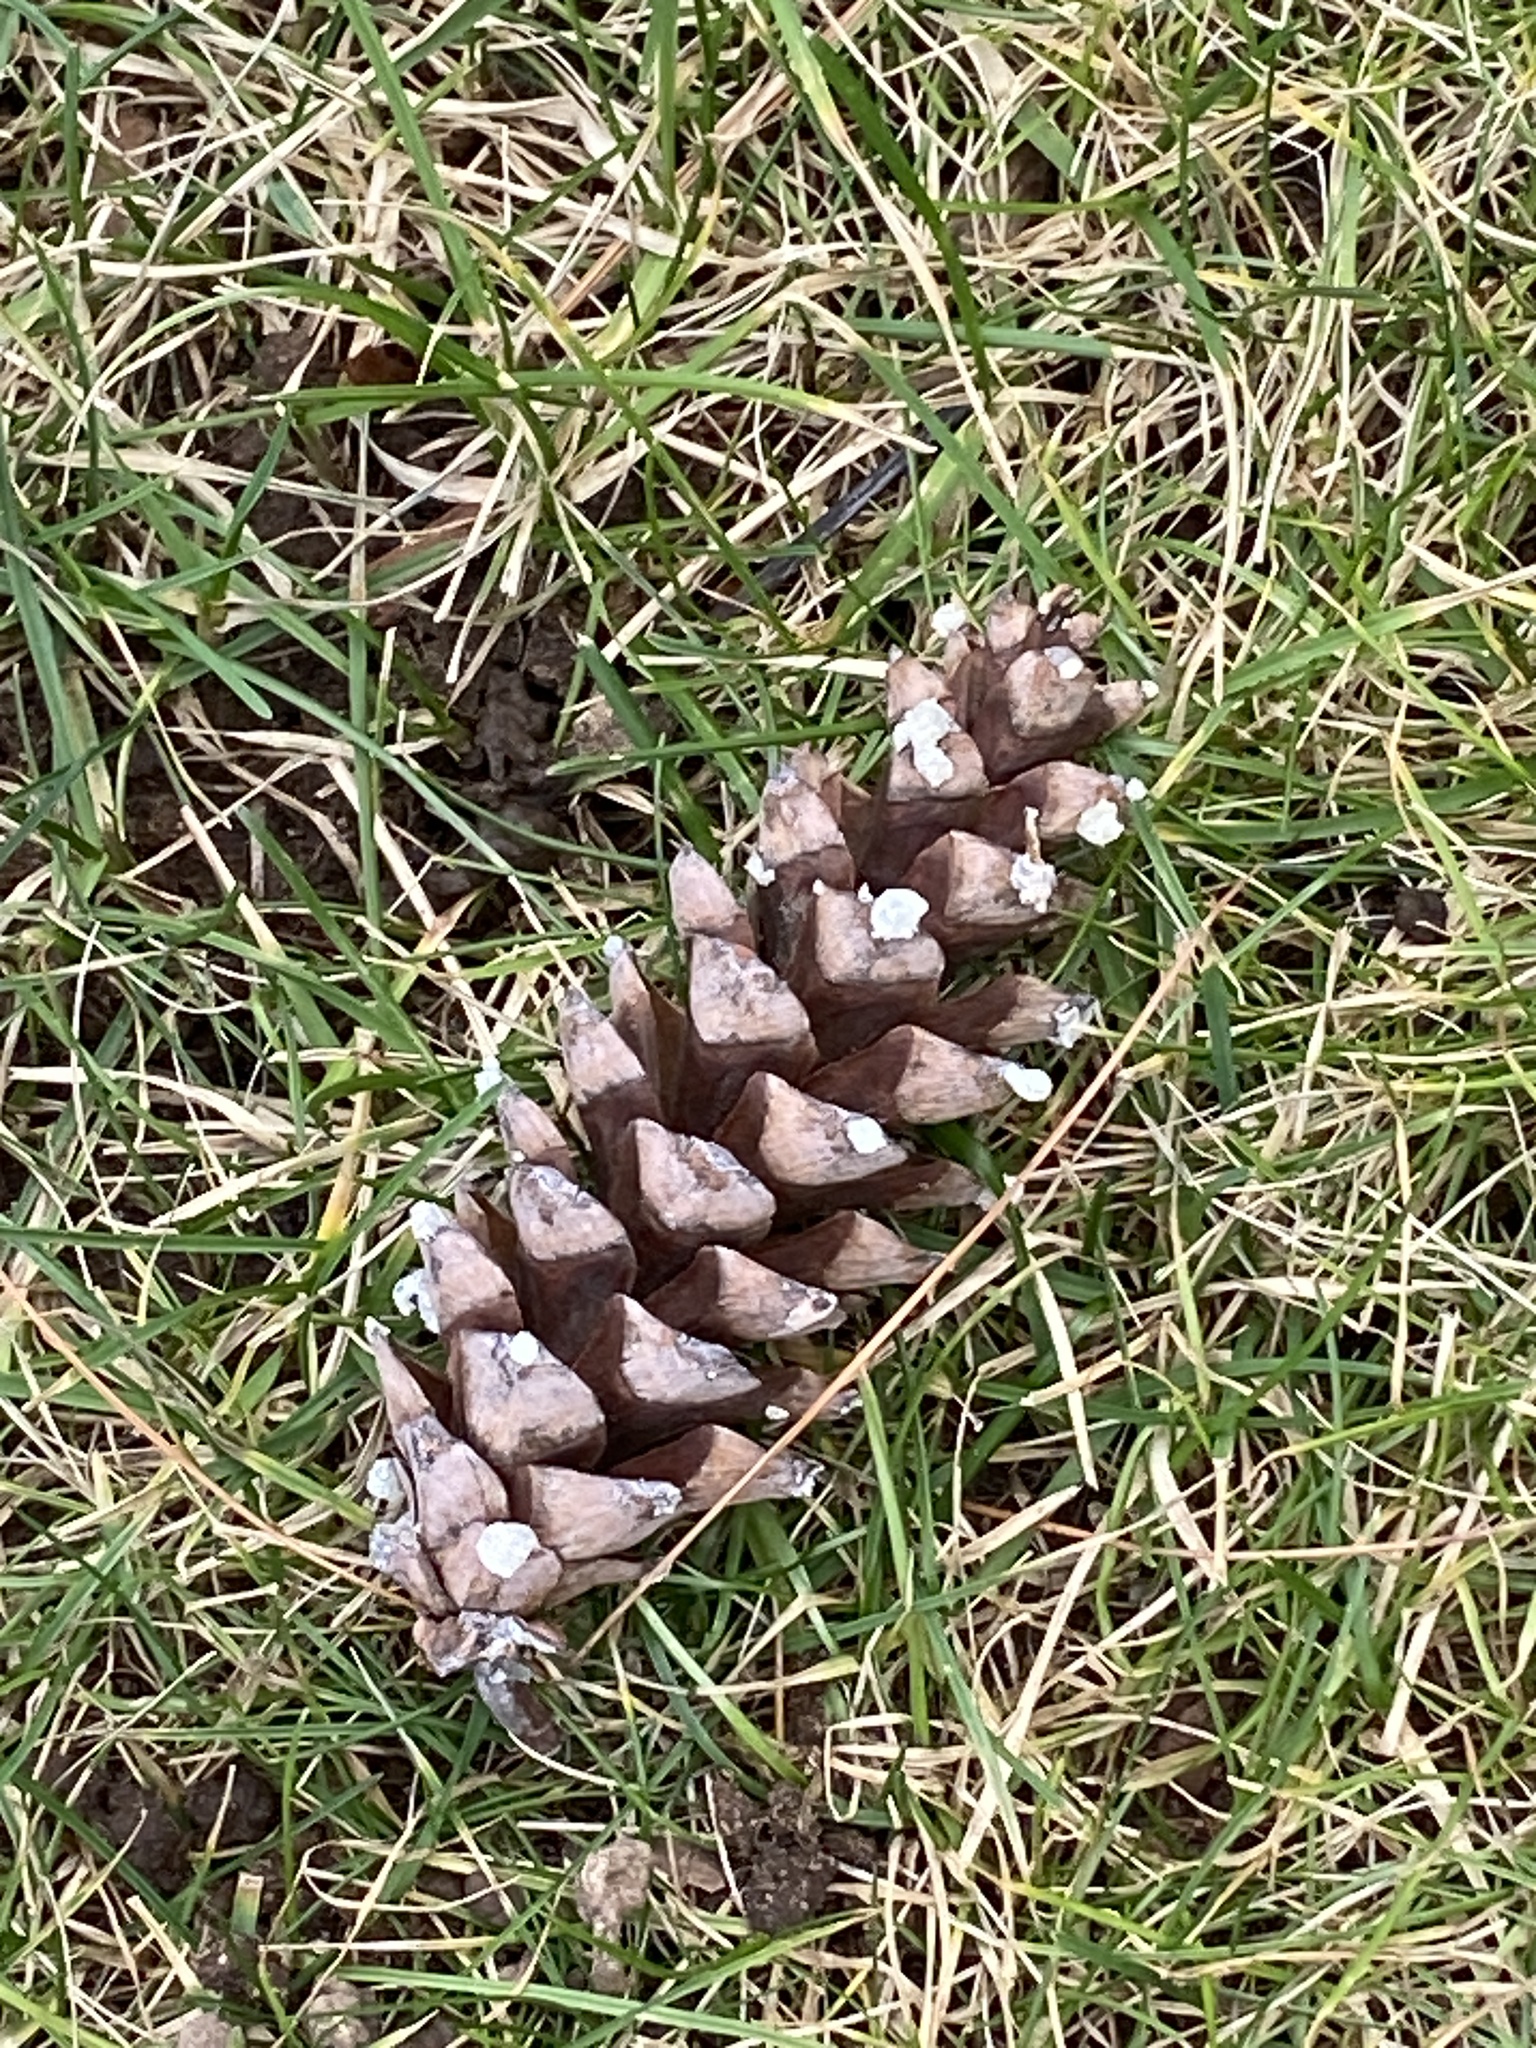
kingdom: Plantae
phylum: Tracheophyta
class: Pinopsida
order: Pinales
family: Pinaceae
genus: Pinus
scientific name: Pinus strobus
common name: Weymouth pine
